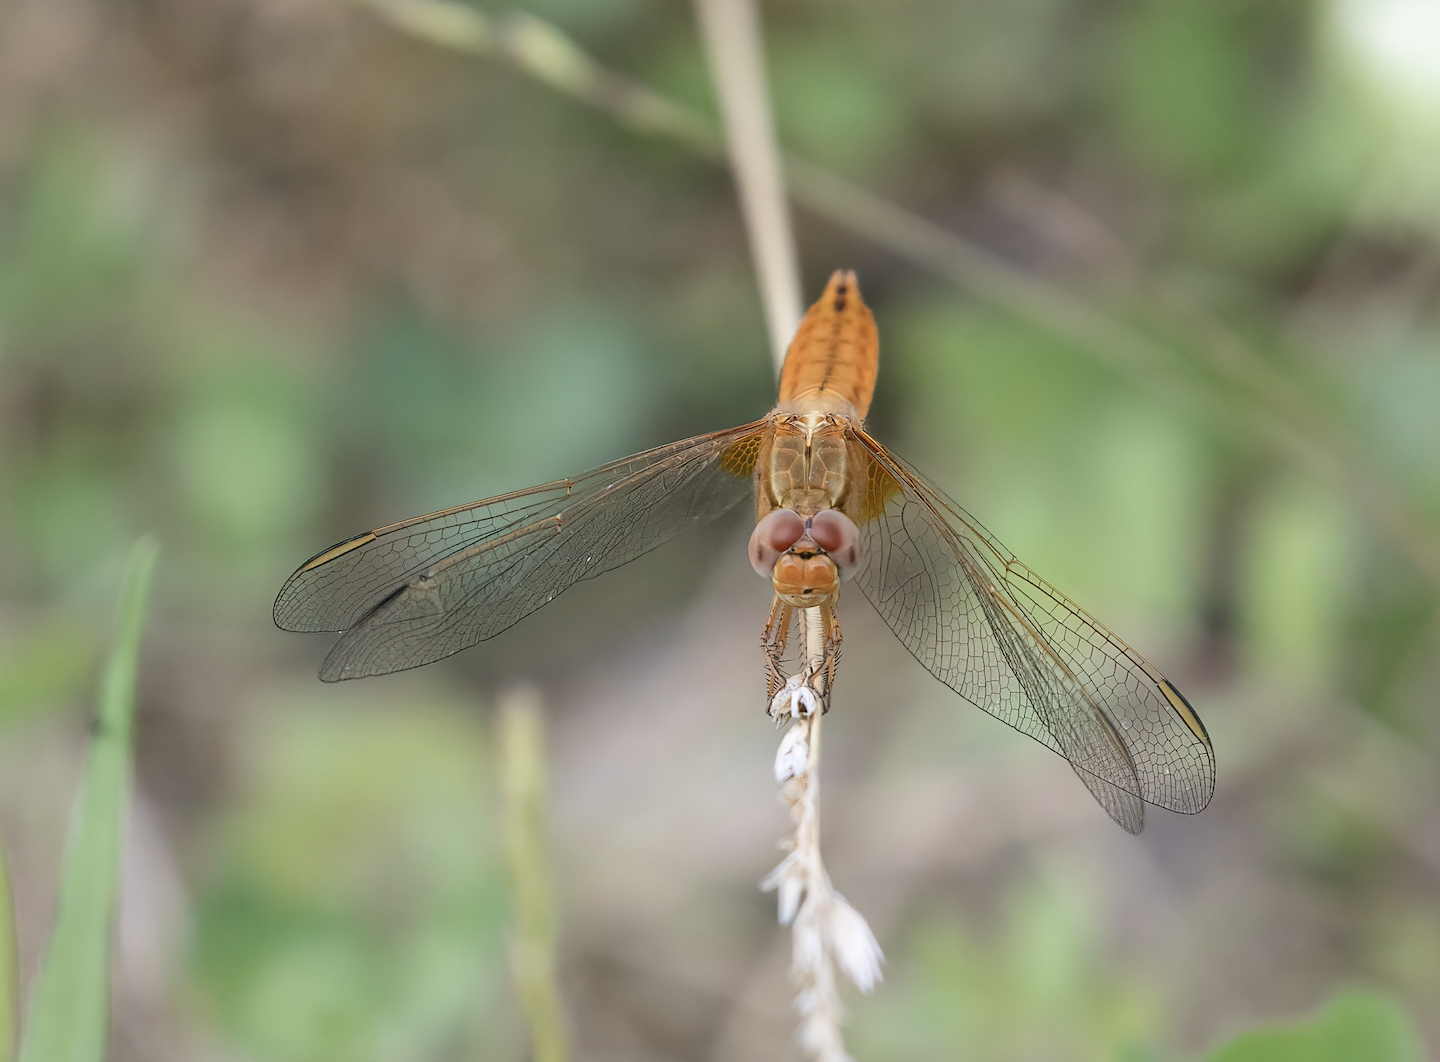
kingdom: Animalia
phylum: Arthropoda
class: Insecta
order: Odonata
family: Libellulidae
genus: Crocothemis
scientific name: Crocothemis erythraea
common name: Scarlet dragonfly
